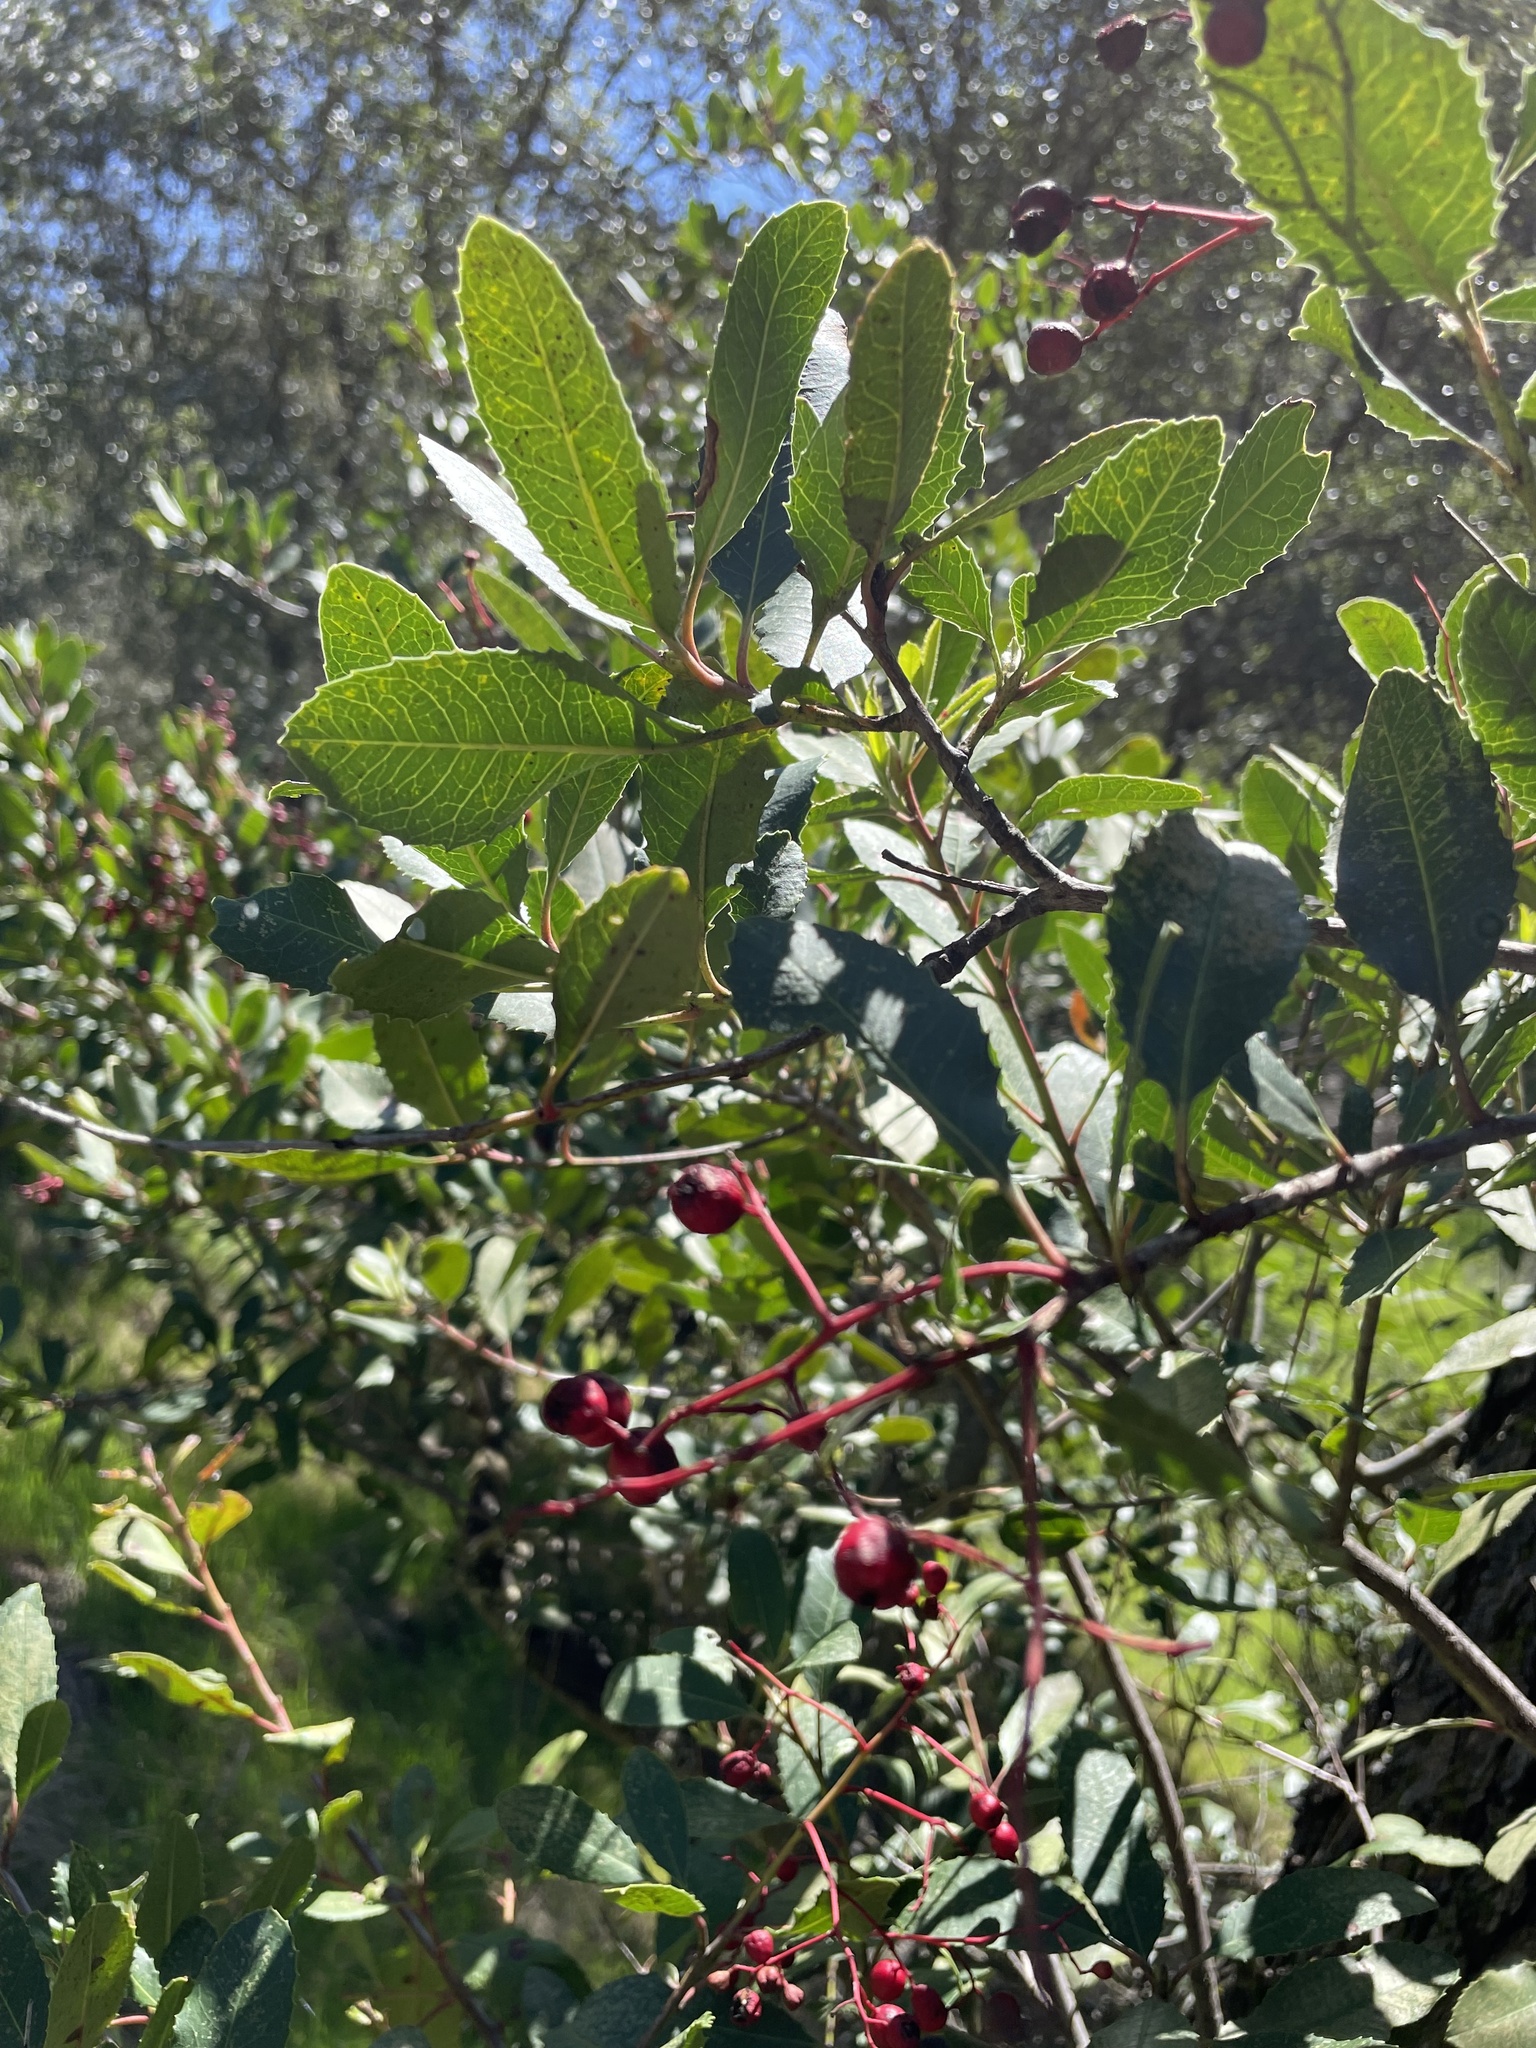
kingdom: Plantae
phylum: Tracheophyta
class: Magnoliopsida
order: Rosales
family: Rosaceae
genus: Heteromeles
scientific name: Heteromeles arbutifolia
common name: California-holly
